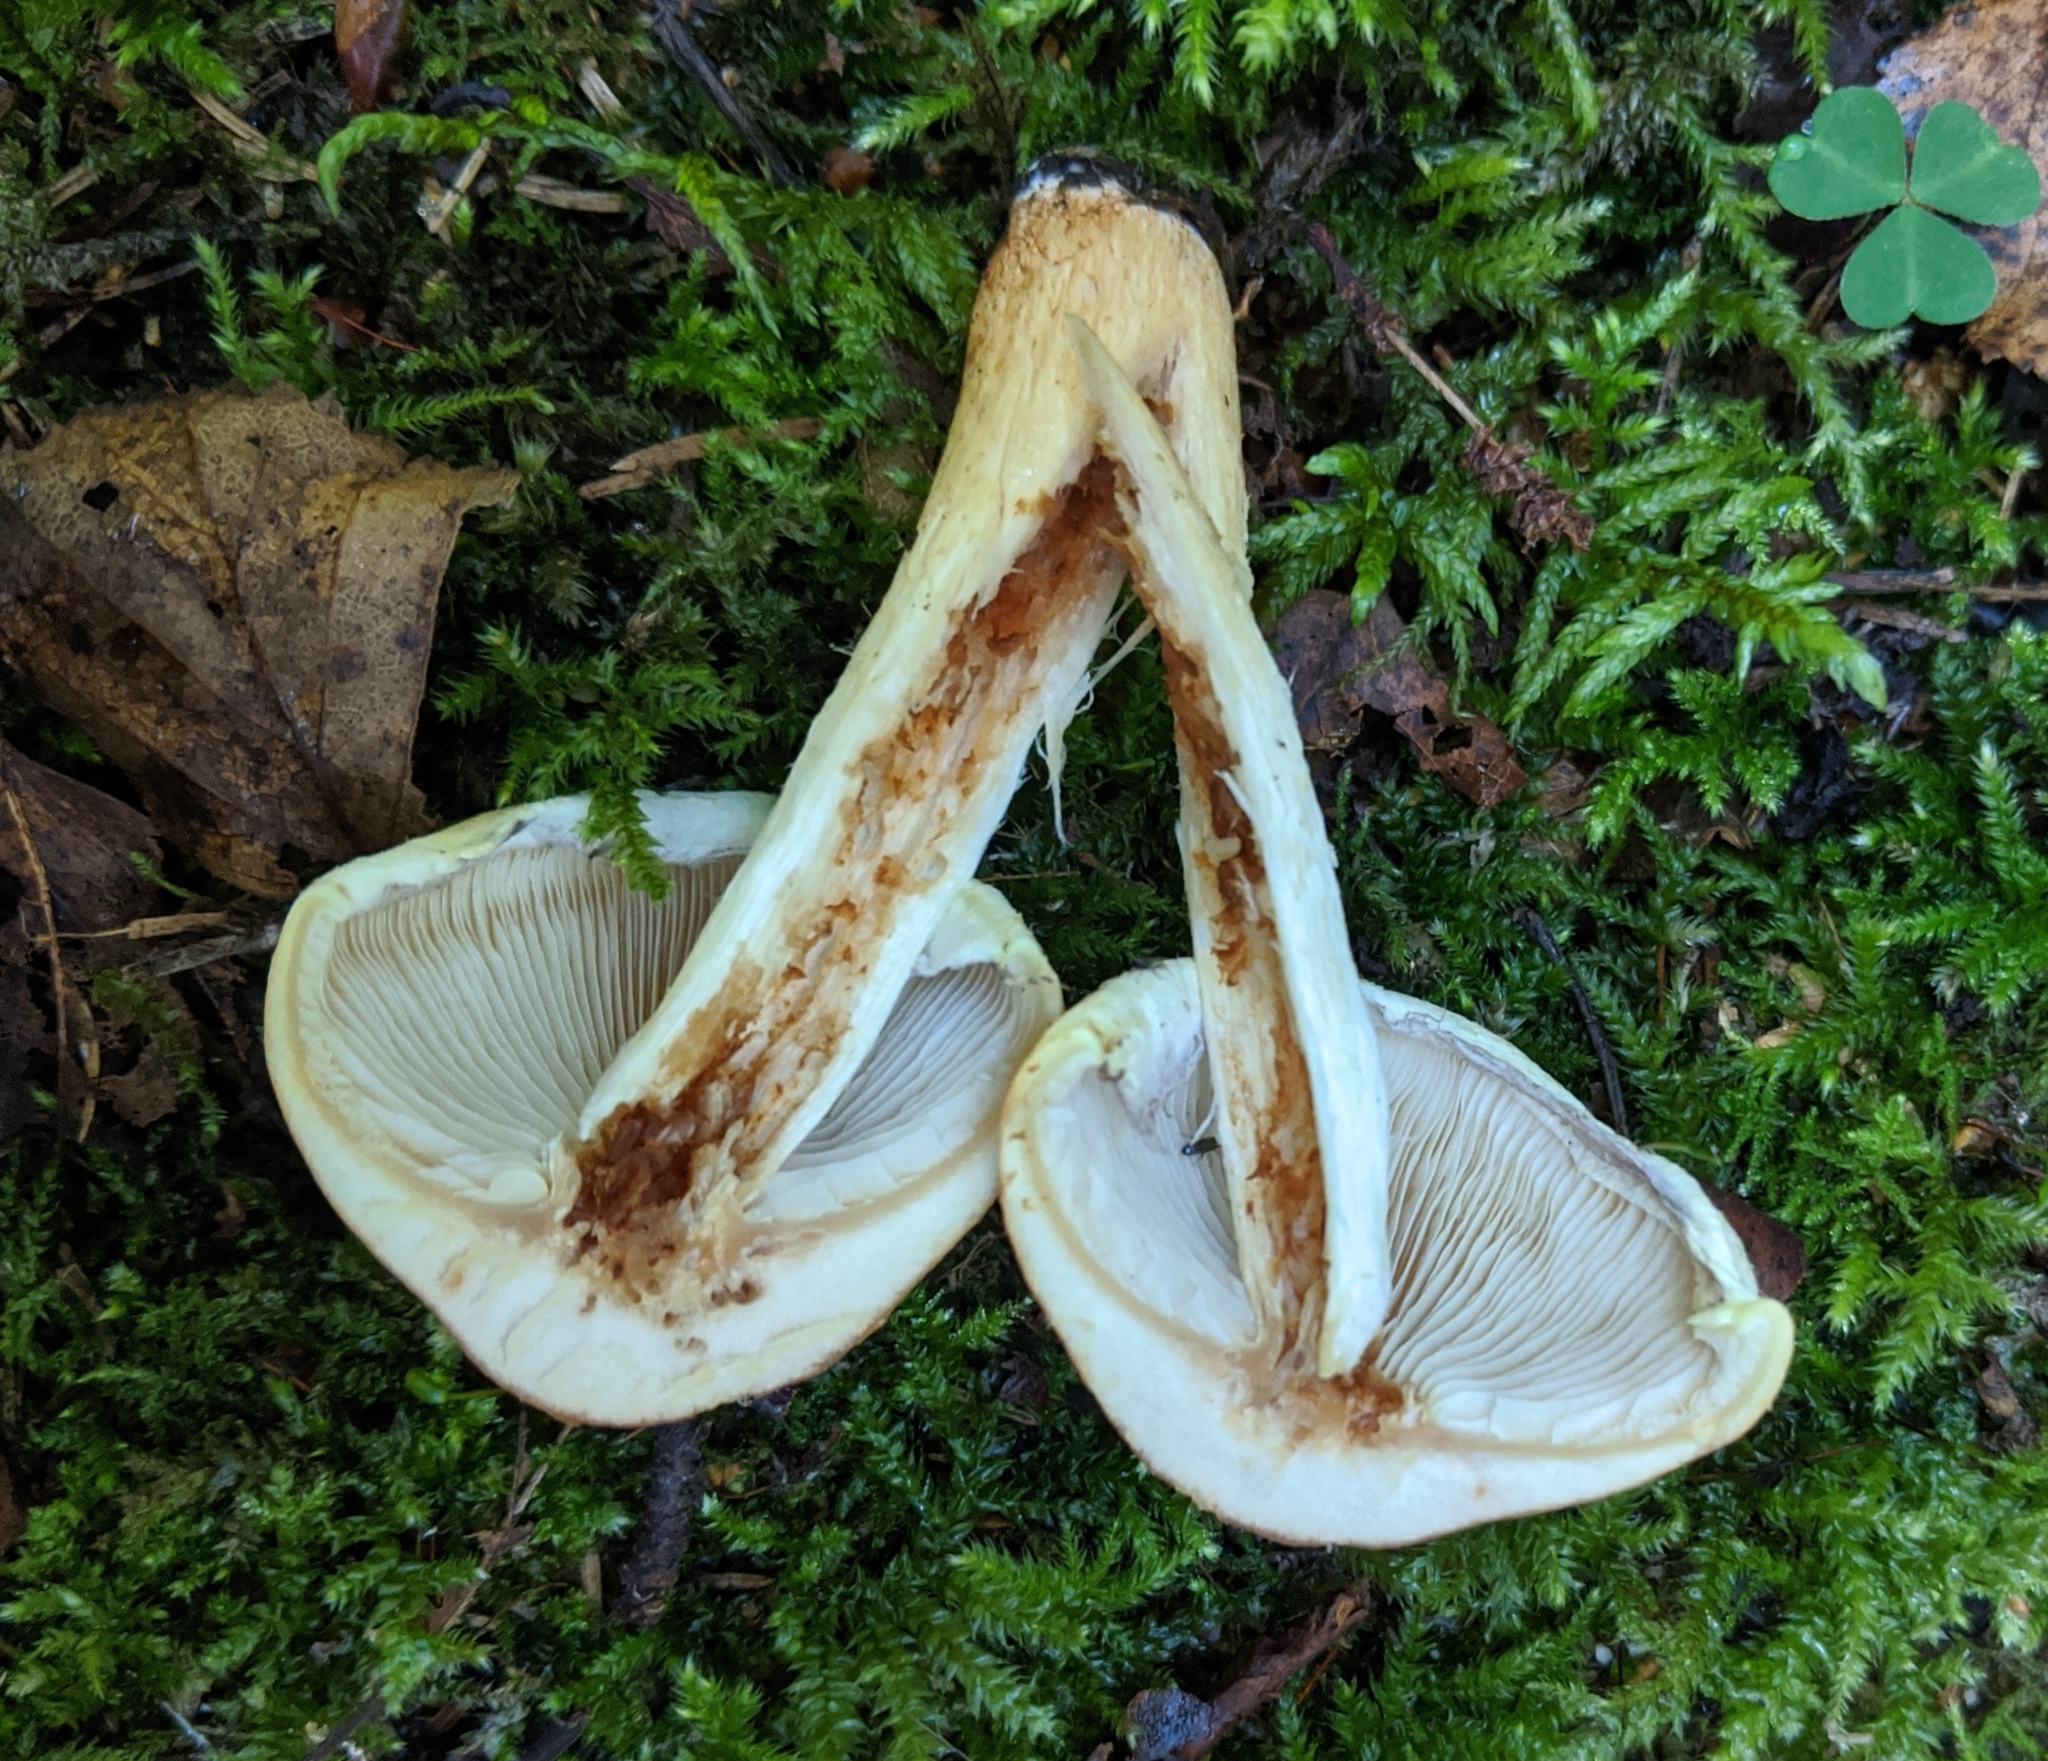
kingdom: Fungi
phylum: Basidiomycota
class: Agaricomycetes
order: Agaricales
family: Strophariaceae
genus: Hypholoma
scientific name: Hypholoma lateritium
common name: Brick caps
